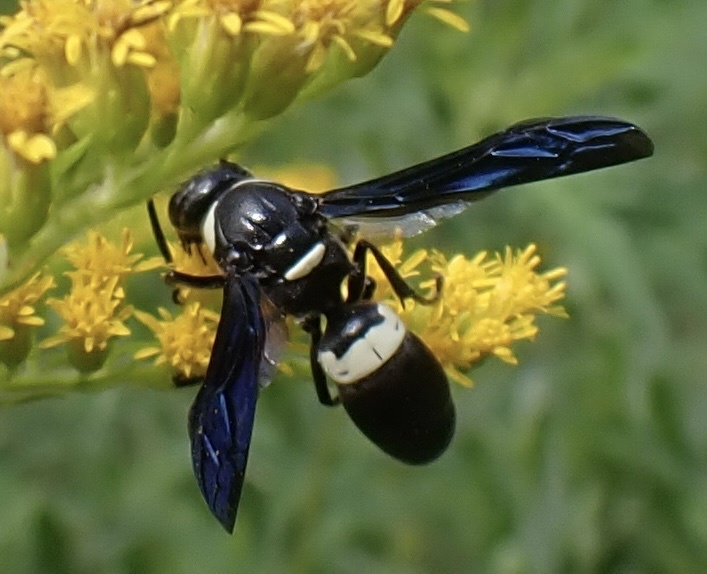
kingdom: Animalia
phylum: Arthropoda
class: Insecta
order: Hymenoptera
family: Eumenidae
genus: Monobia
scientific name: Monobia quadridens
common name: Four-toothed mason wasp
